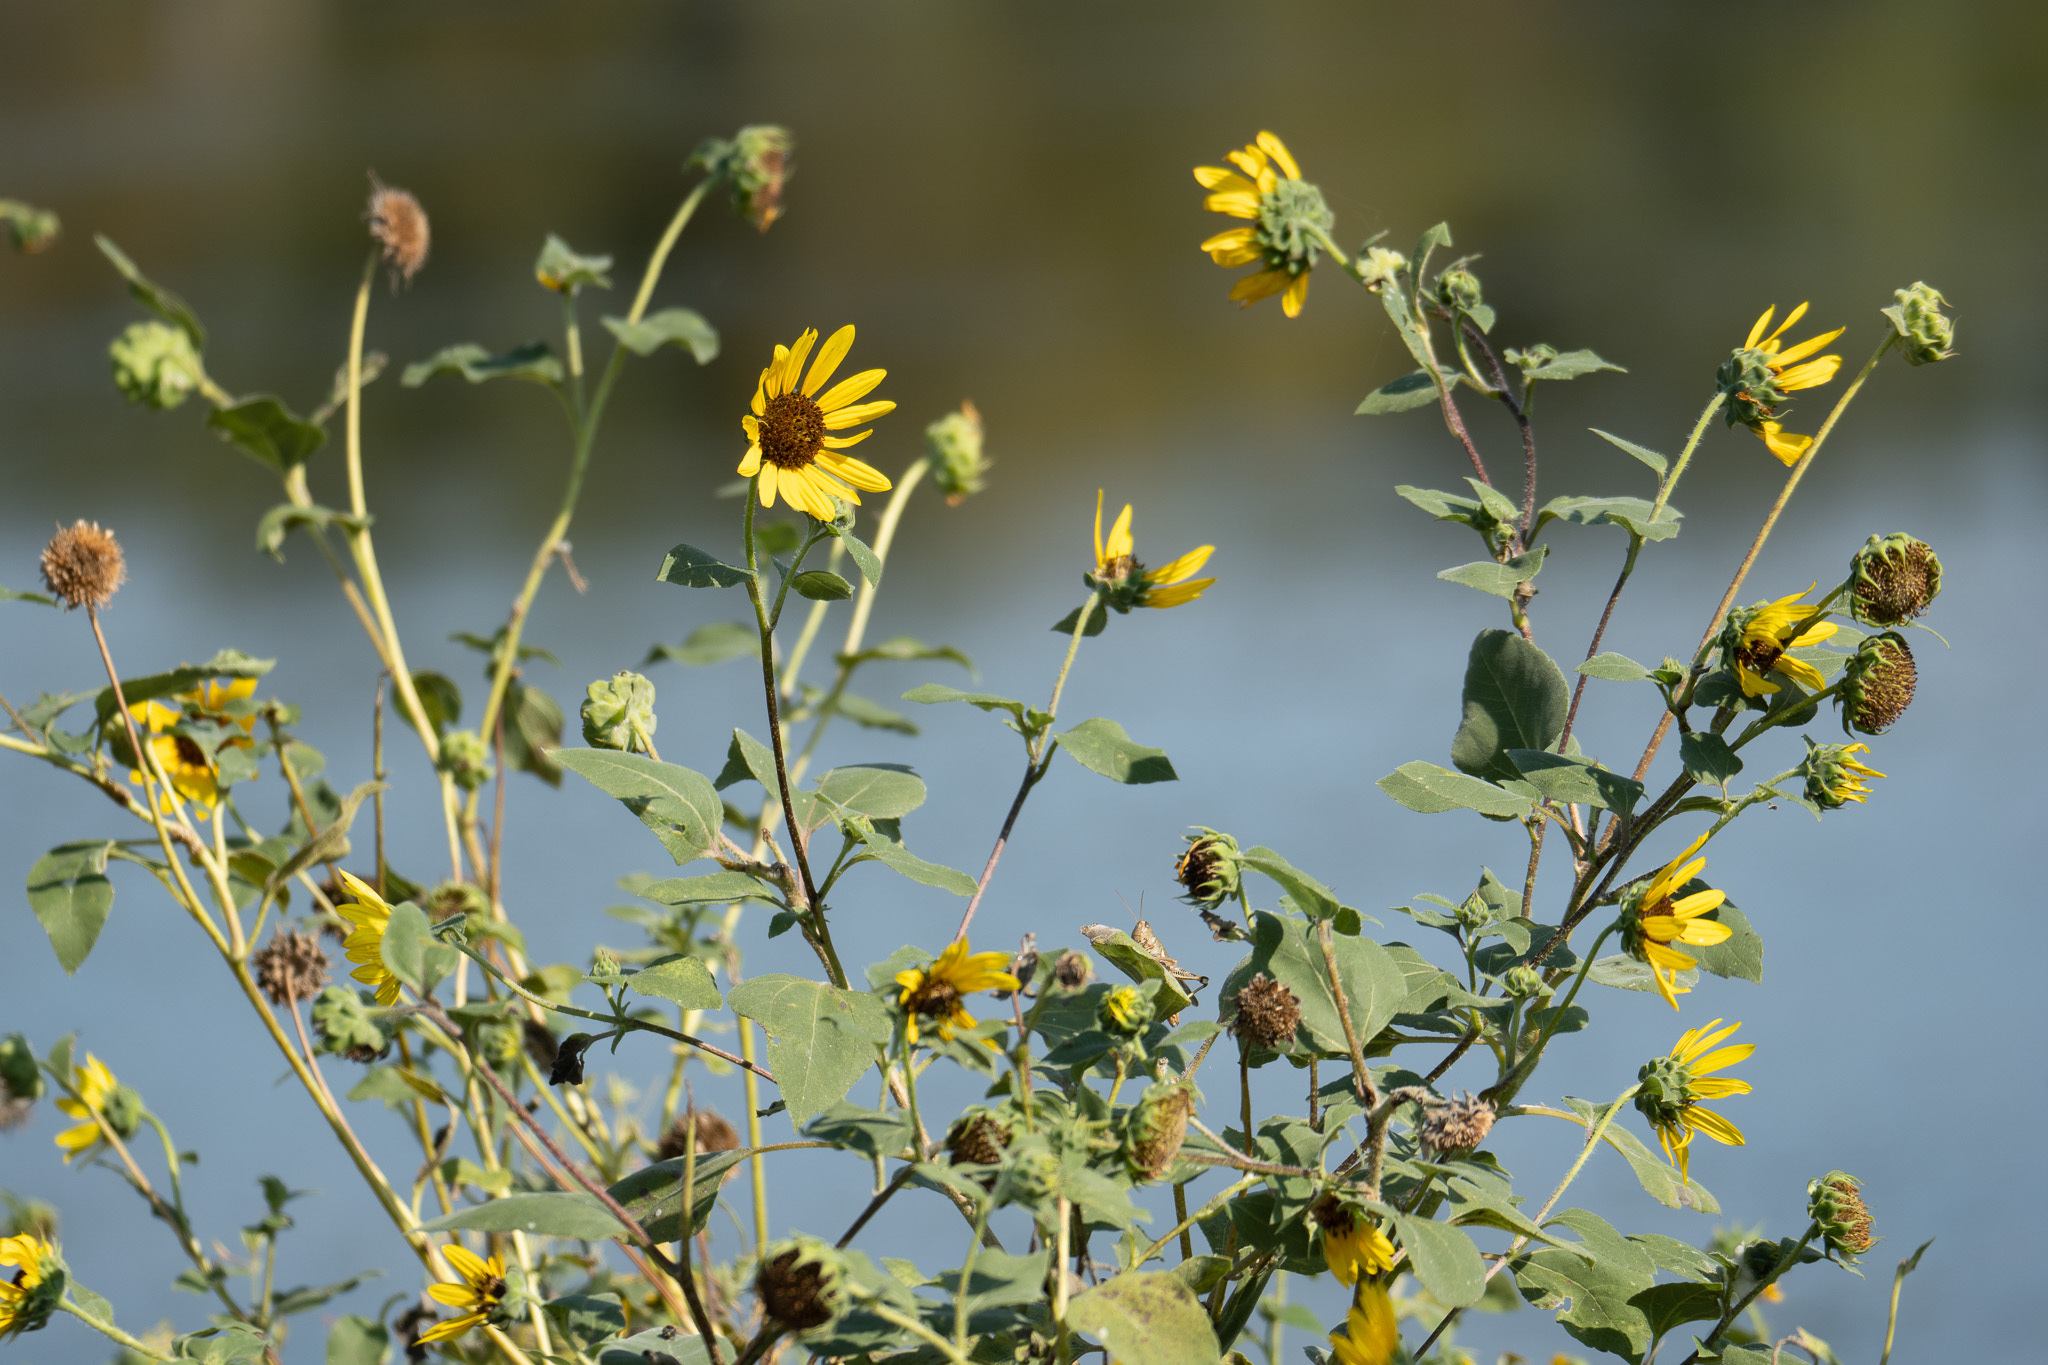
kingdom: Plantae
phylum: Tracheophyta
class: Magnoliopsida
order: Asterales
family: Asteraceae
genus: Helianthus
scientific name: Helianthus annuus
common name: Sunflower
